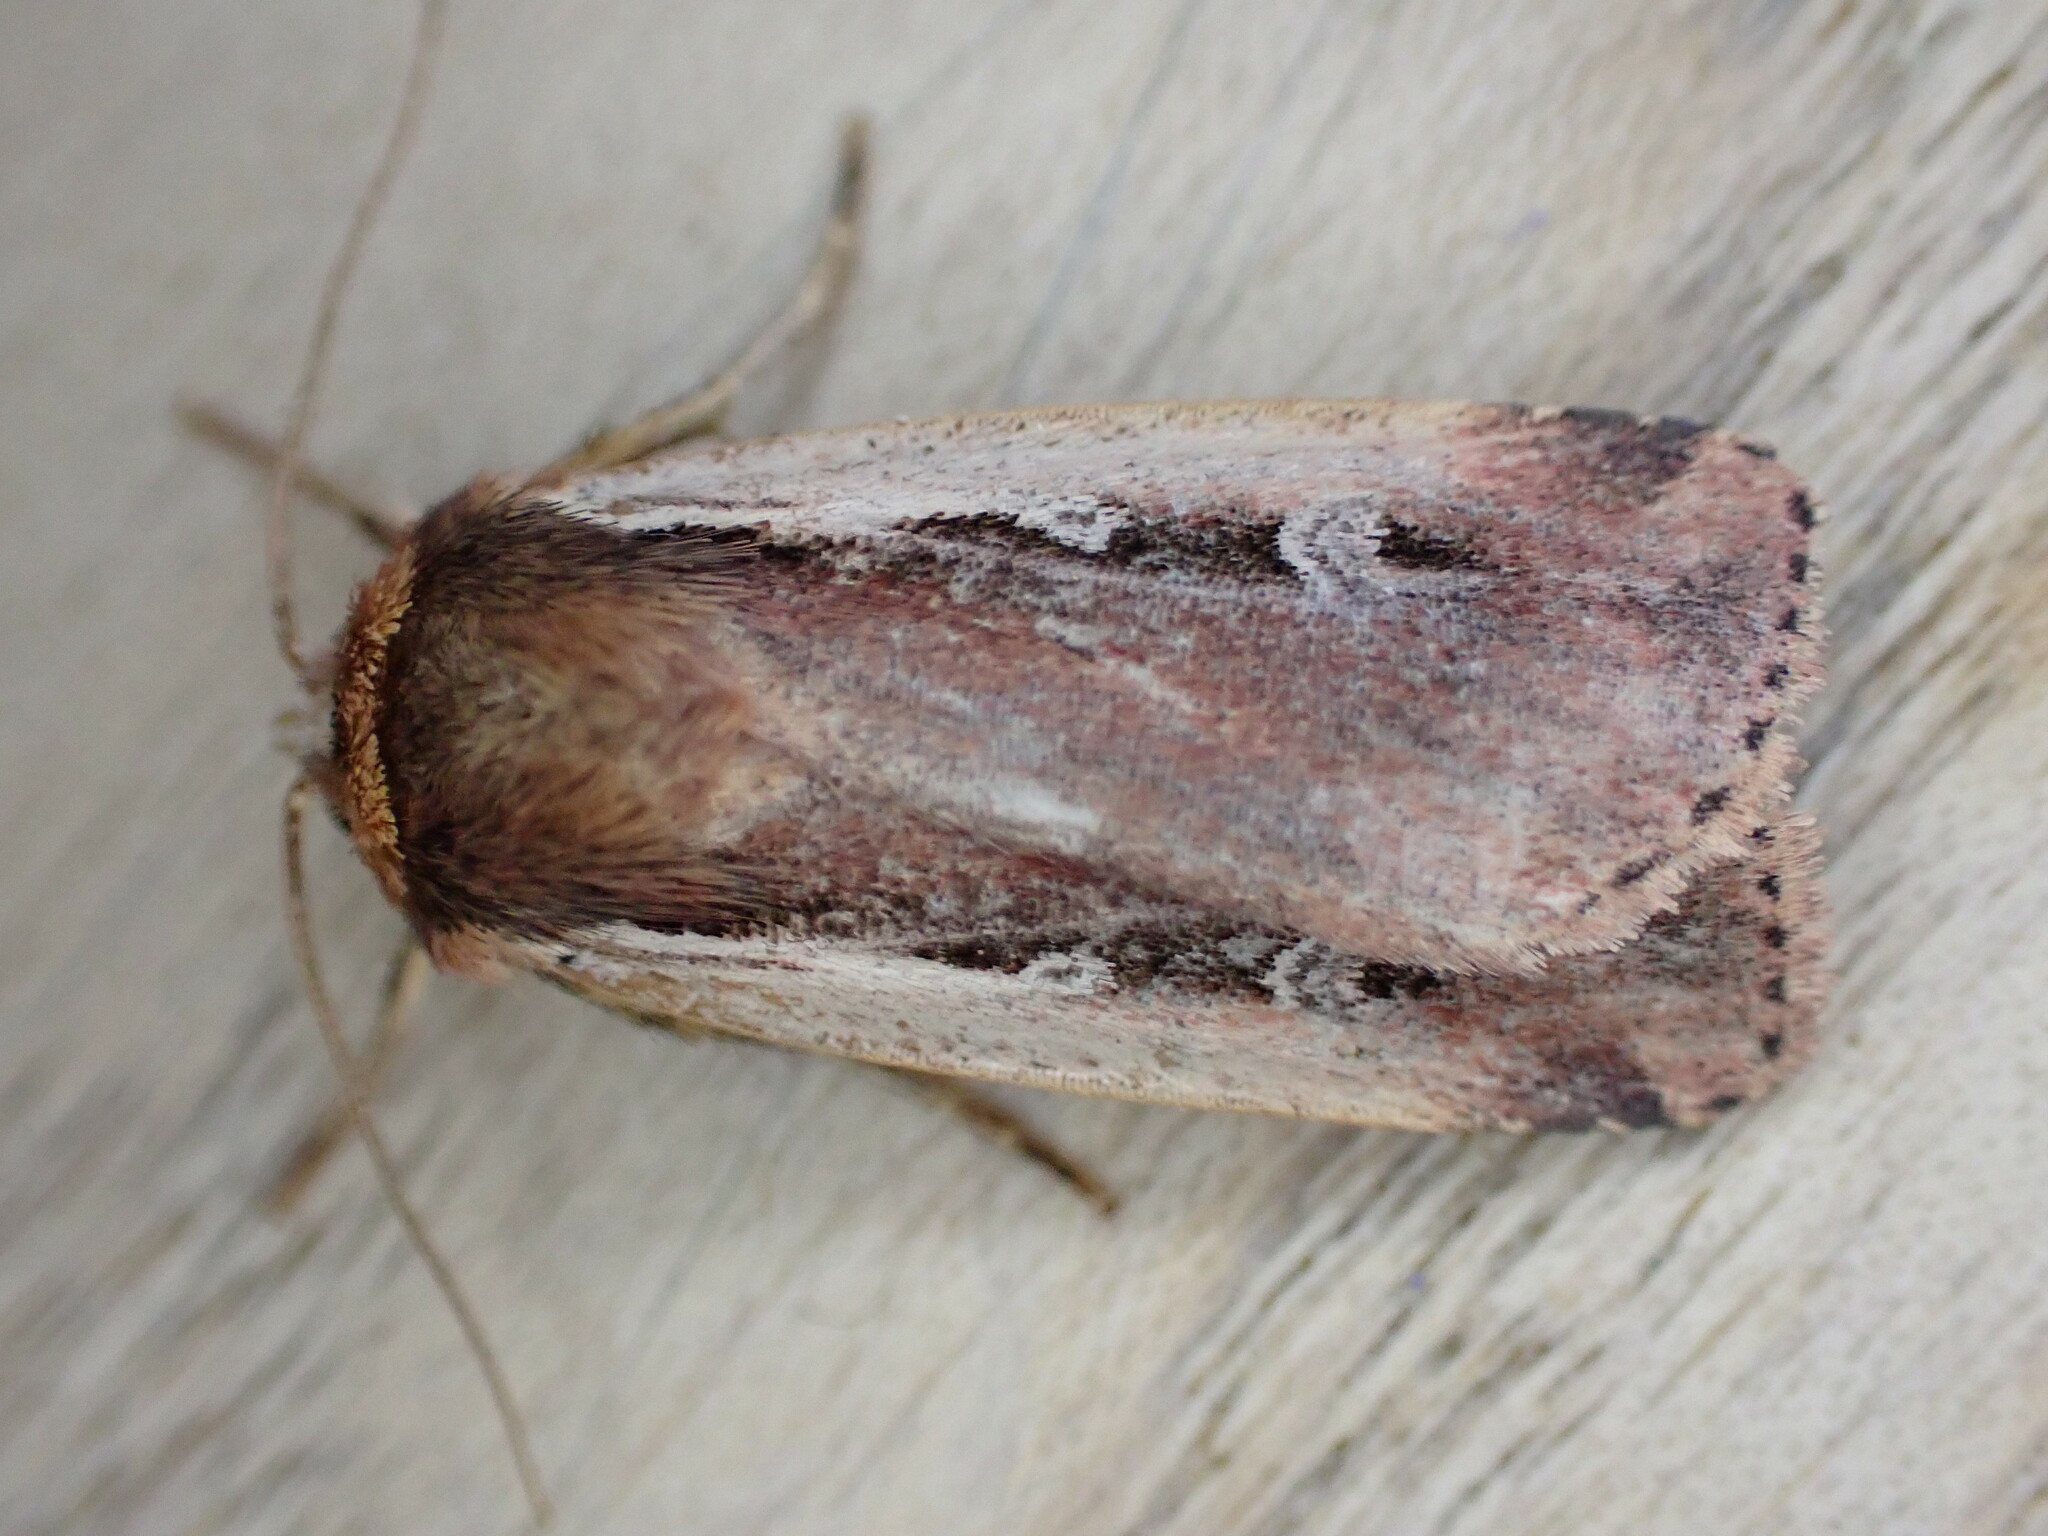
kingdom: Animalia
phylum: Arthropoda
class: Insecta
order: Lepidoptera
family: Noctuidae
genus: Ochropleura
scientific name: Ochropleura plecta
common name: Flame shoulder
